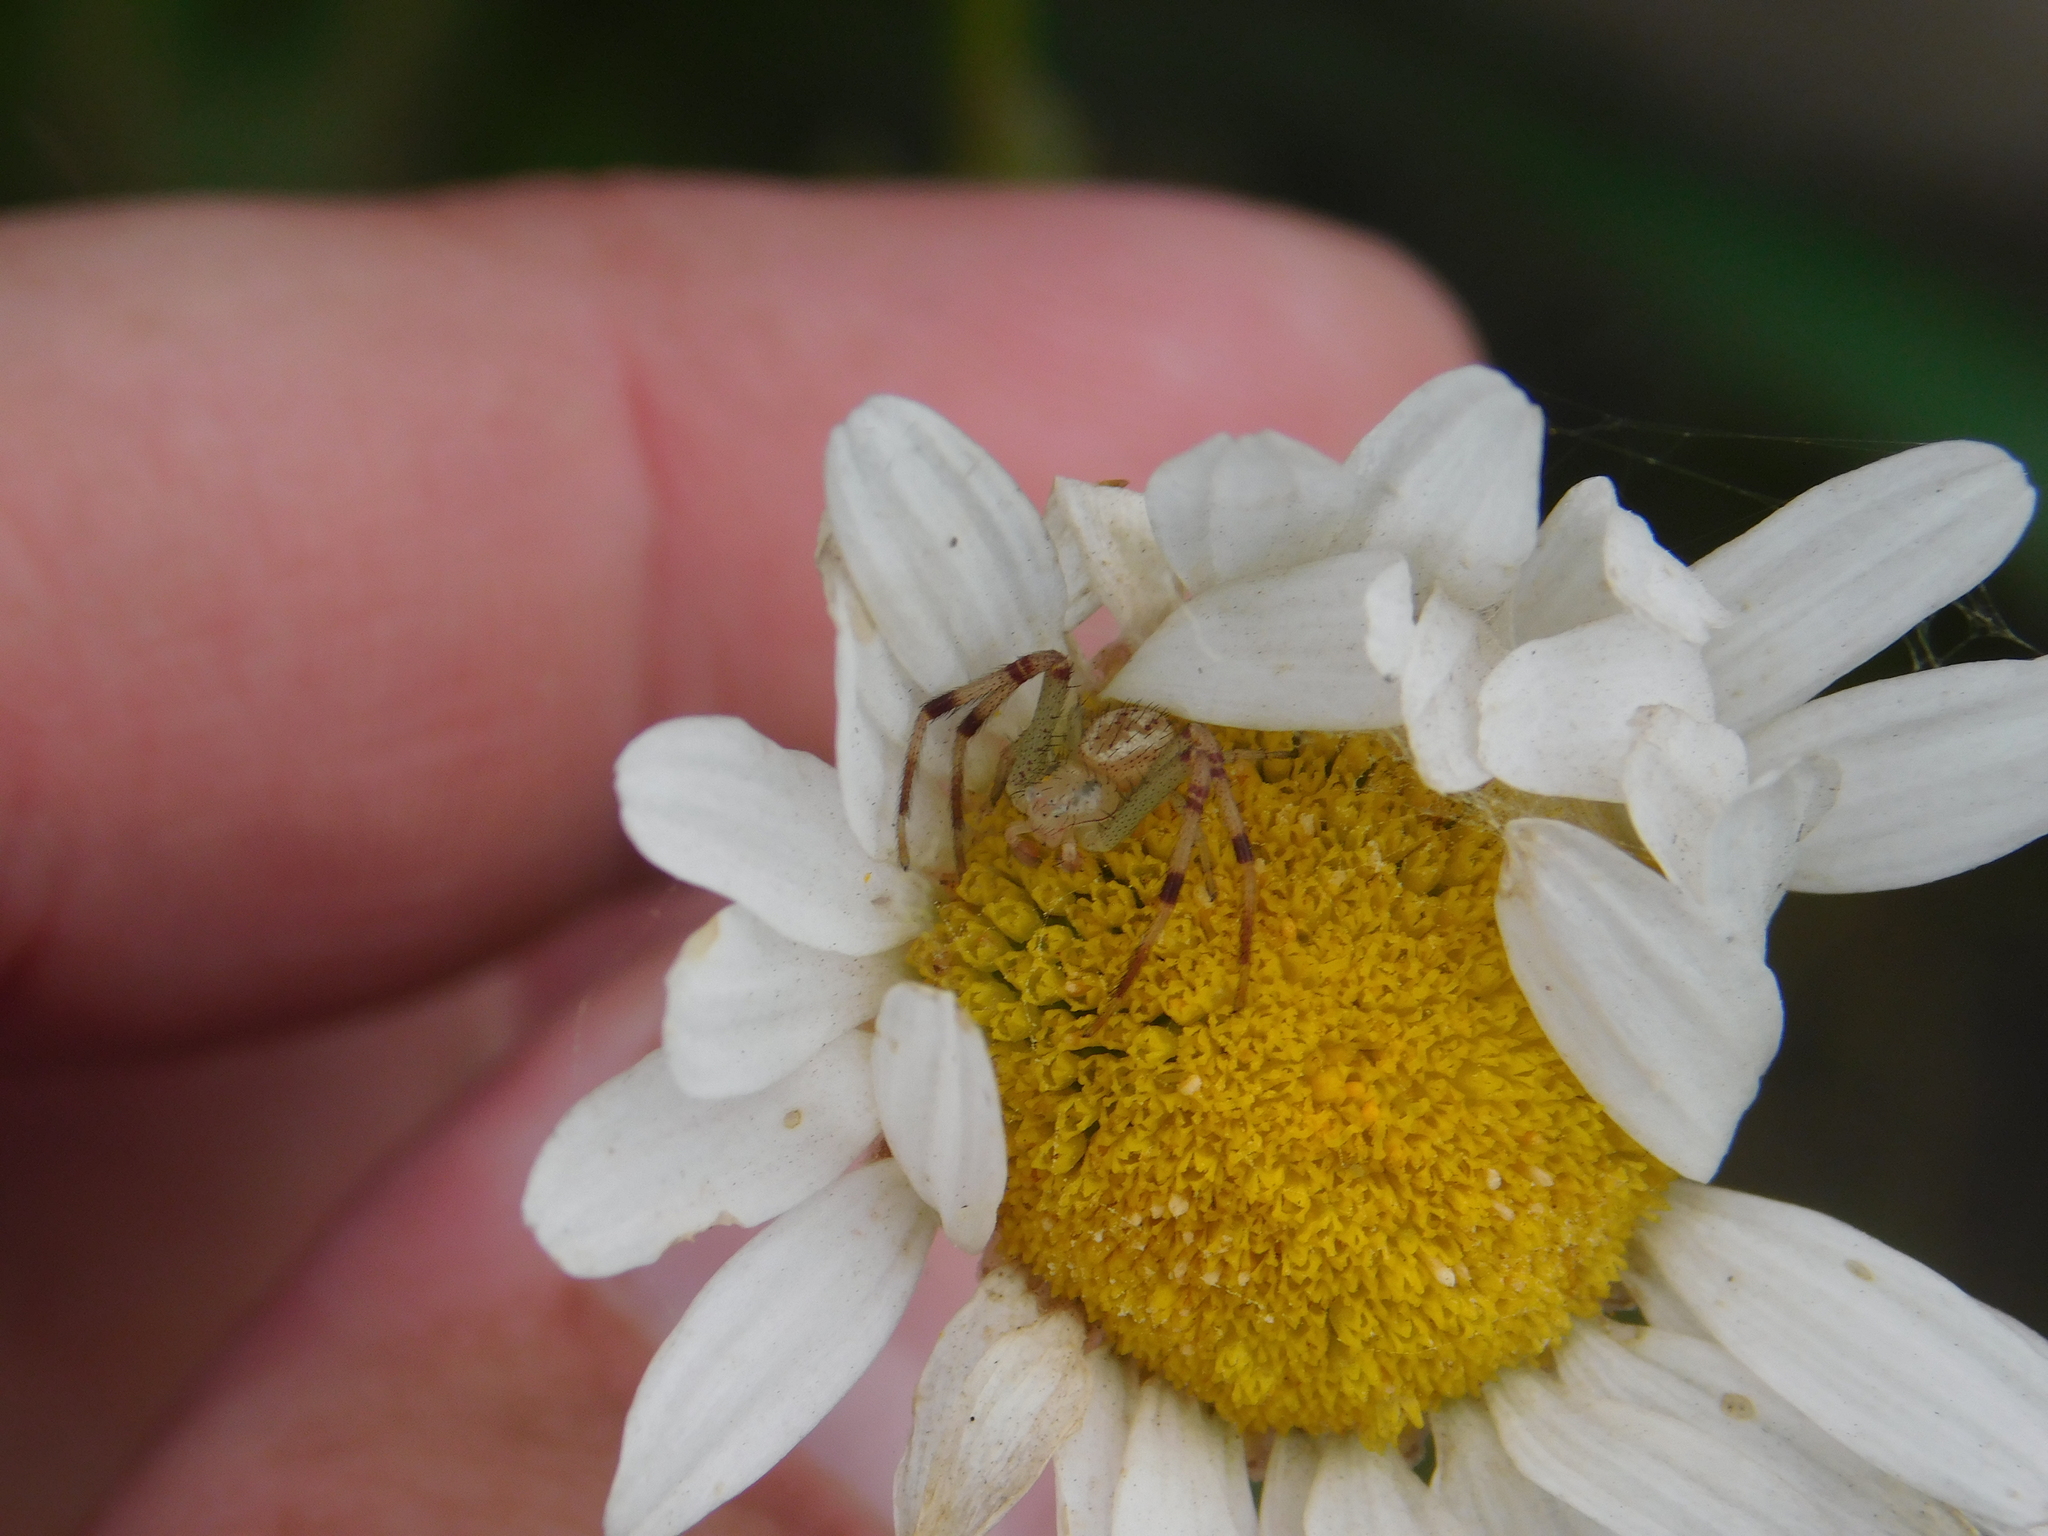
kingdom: Animalia
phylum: Arthropoda
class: Arachnida
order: Araneae
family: Thomisidae
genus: Misumenops
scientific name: Misumenops
